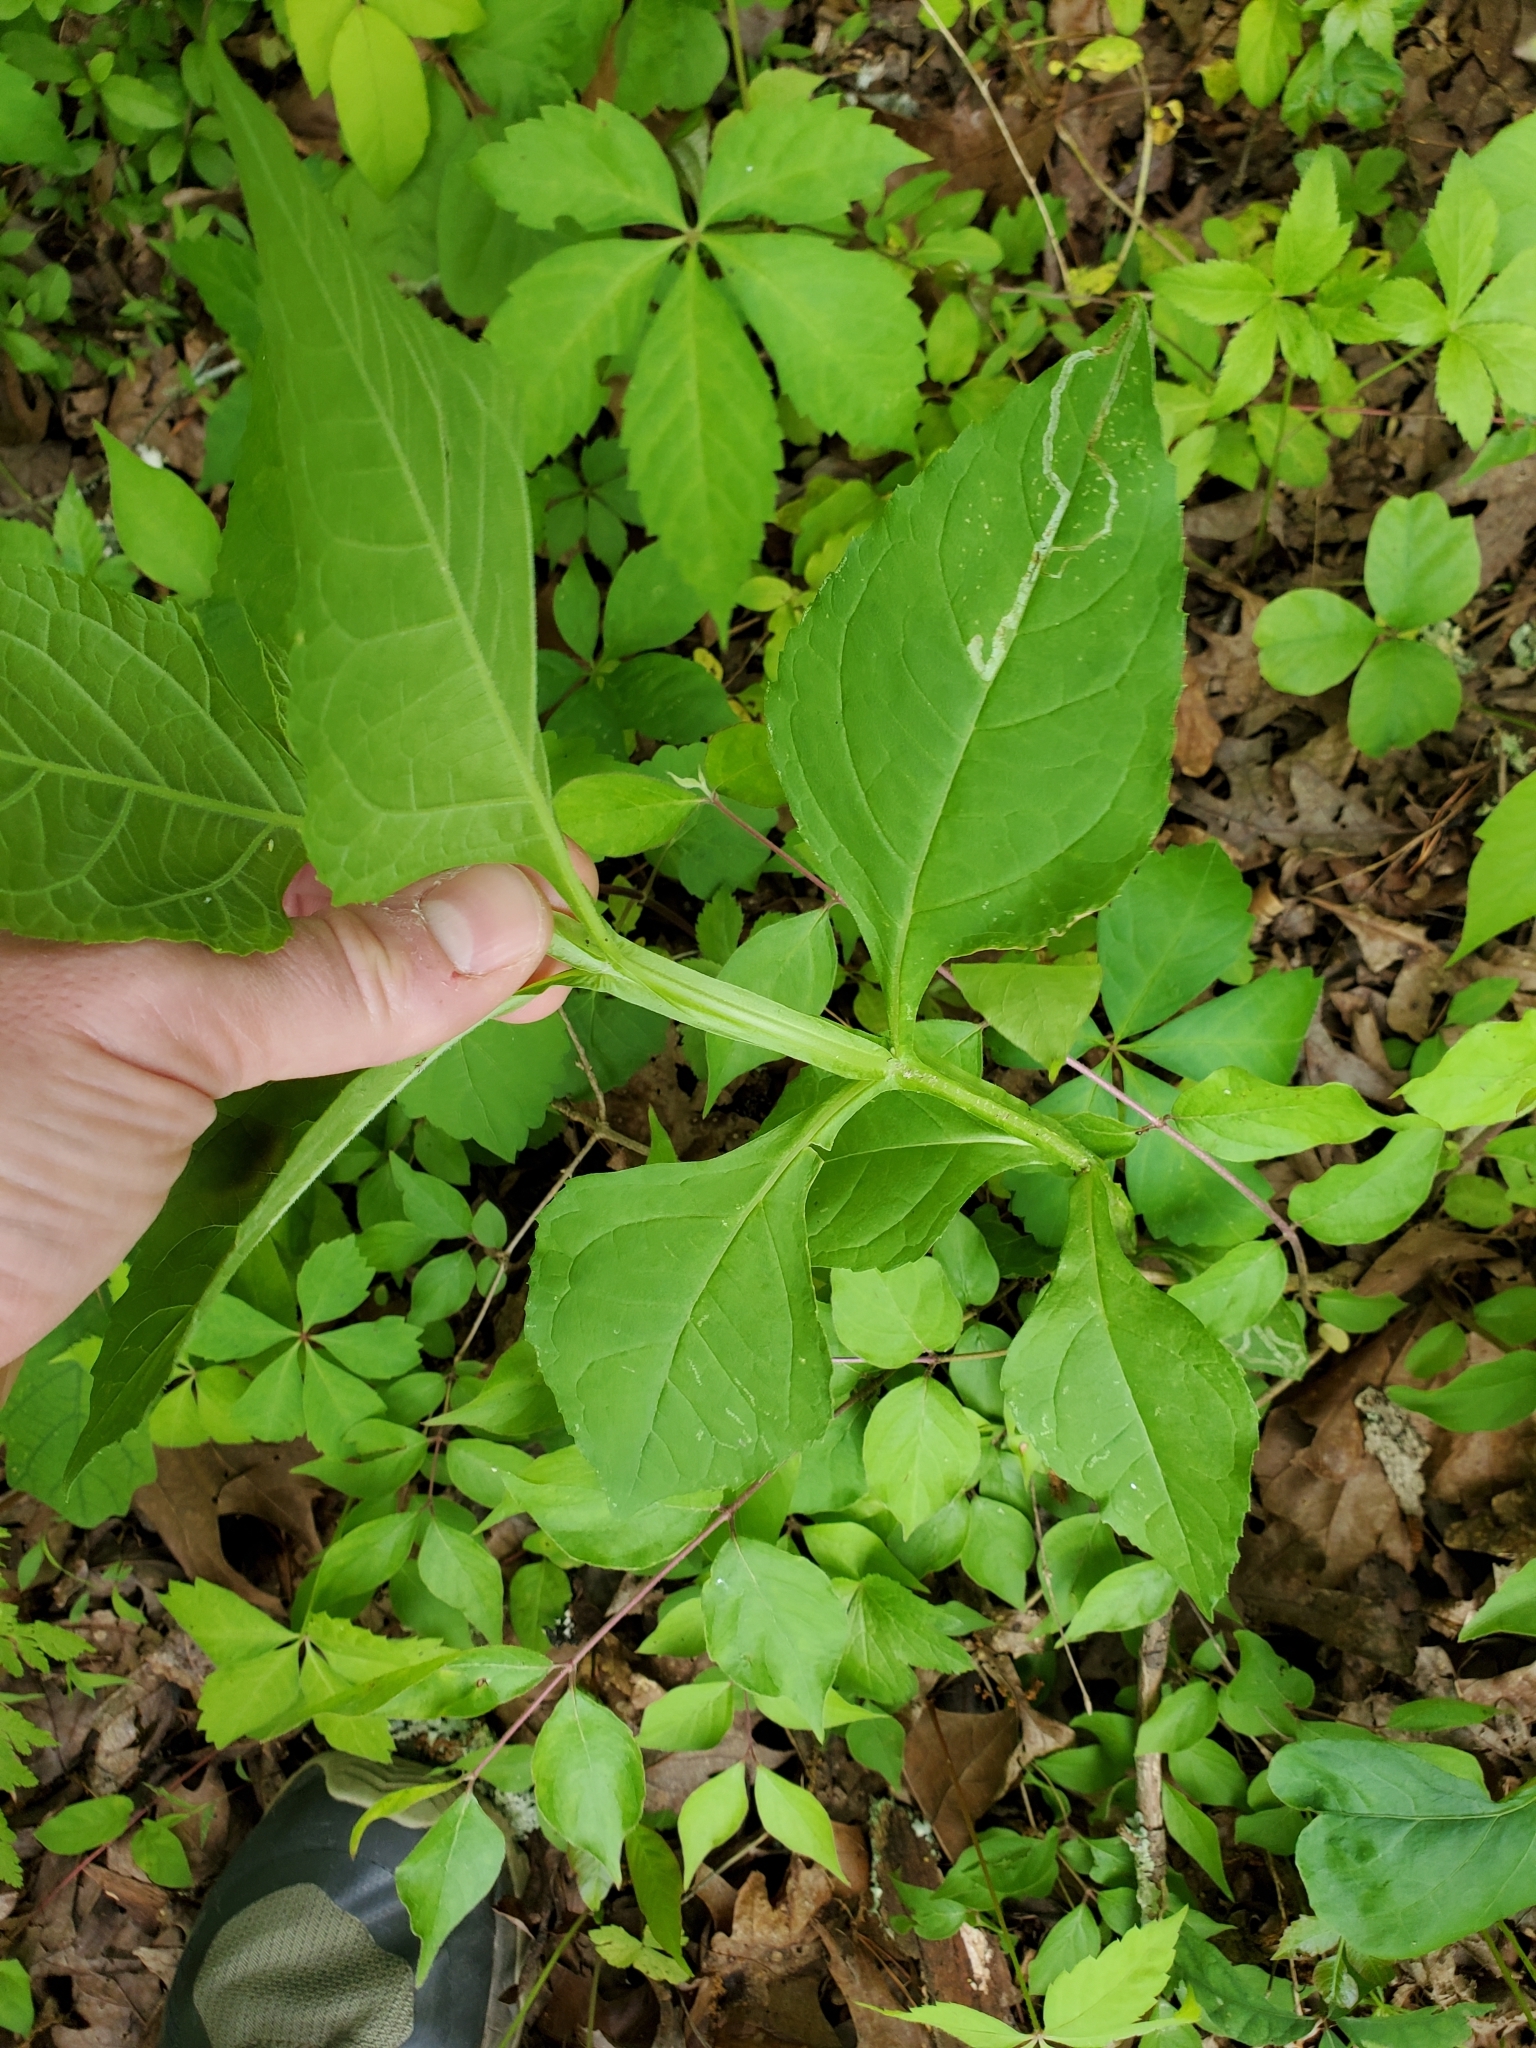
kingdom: Plantae
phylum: Tracheophyta
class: Magnoliopsida
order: Asterales
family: Asteraceae
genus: Verbesina
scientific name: Verbesina occidentalis
